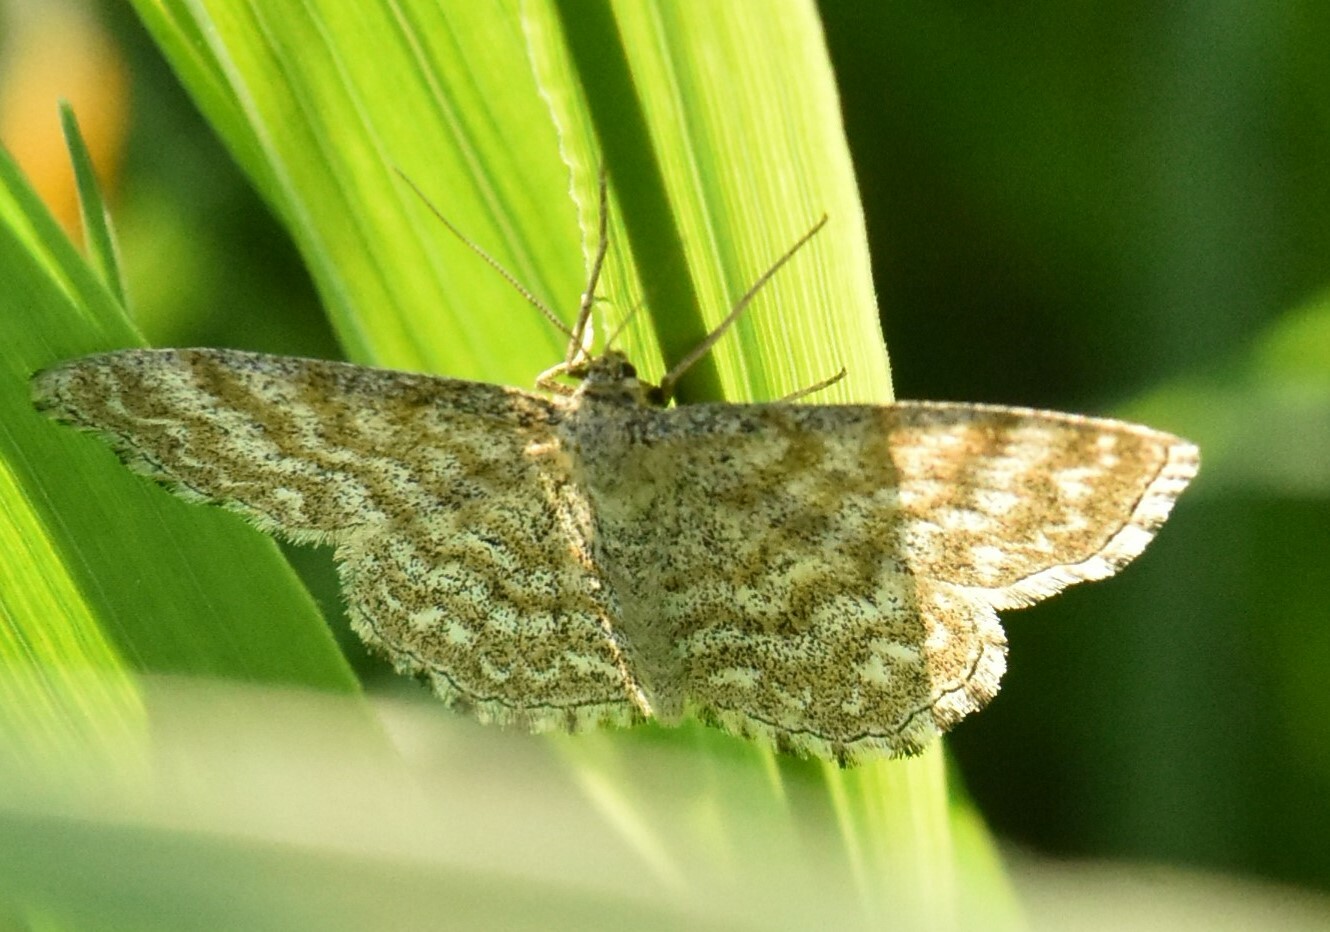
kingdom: Animalia
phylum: Arthropoda
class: Insecta
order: Lepidoptera
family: Geometridae
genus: Scopula
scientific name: Scopula immorata
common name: Lewes wave
